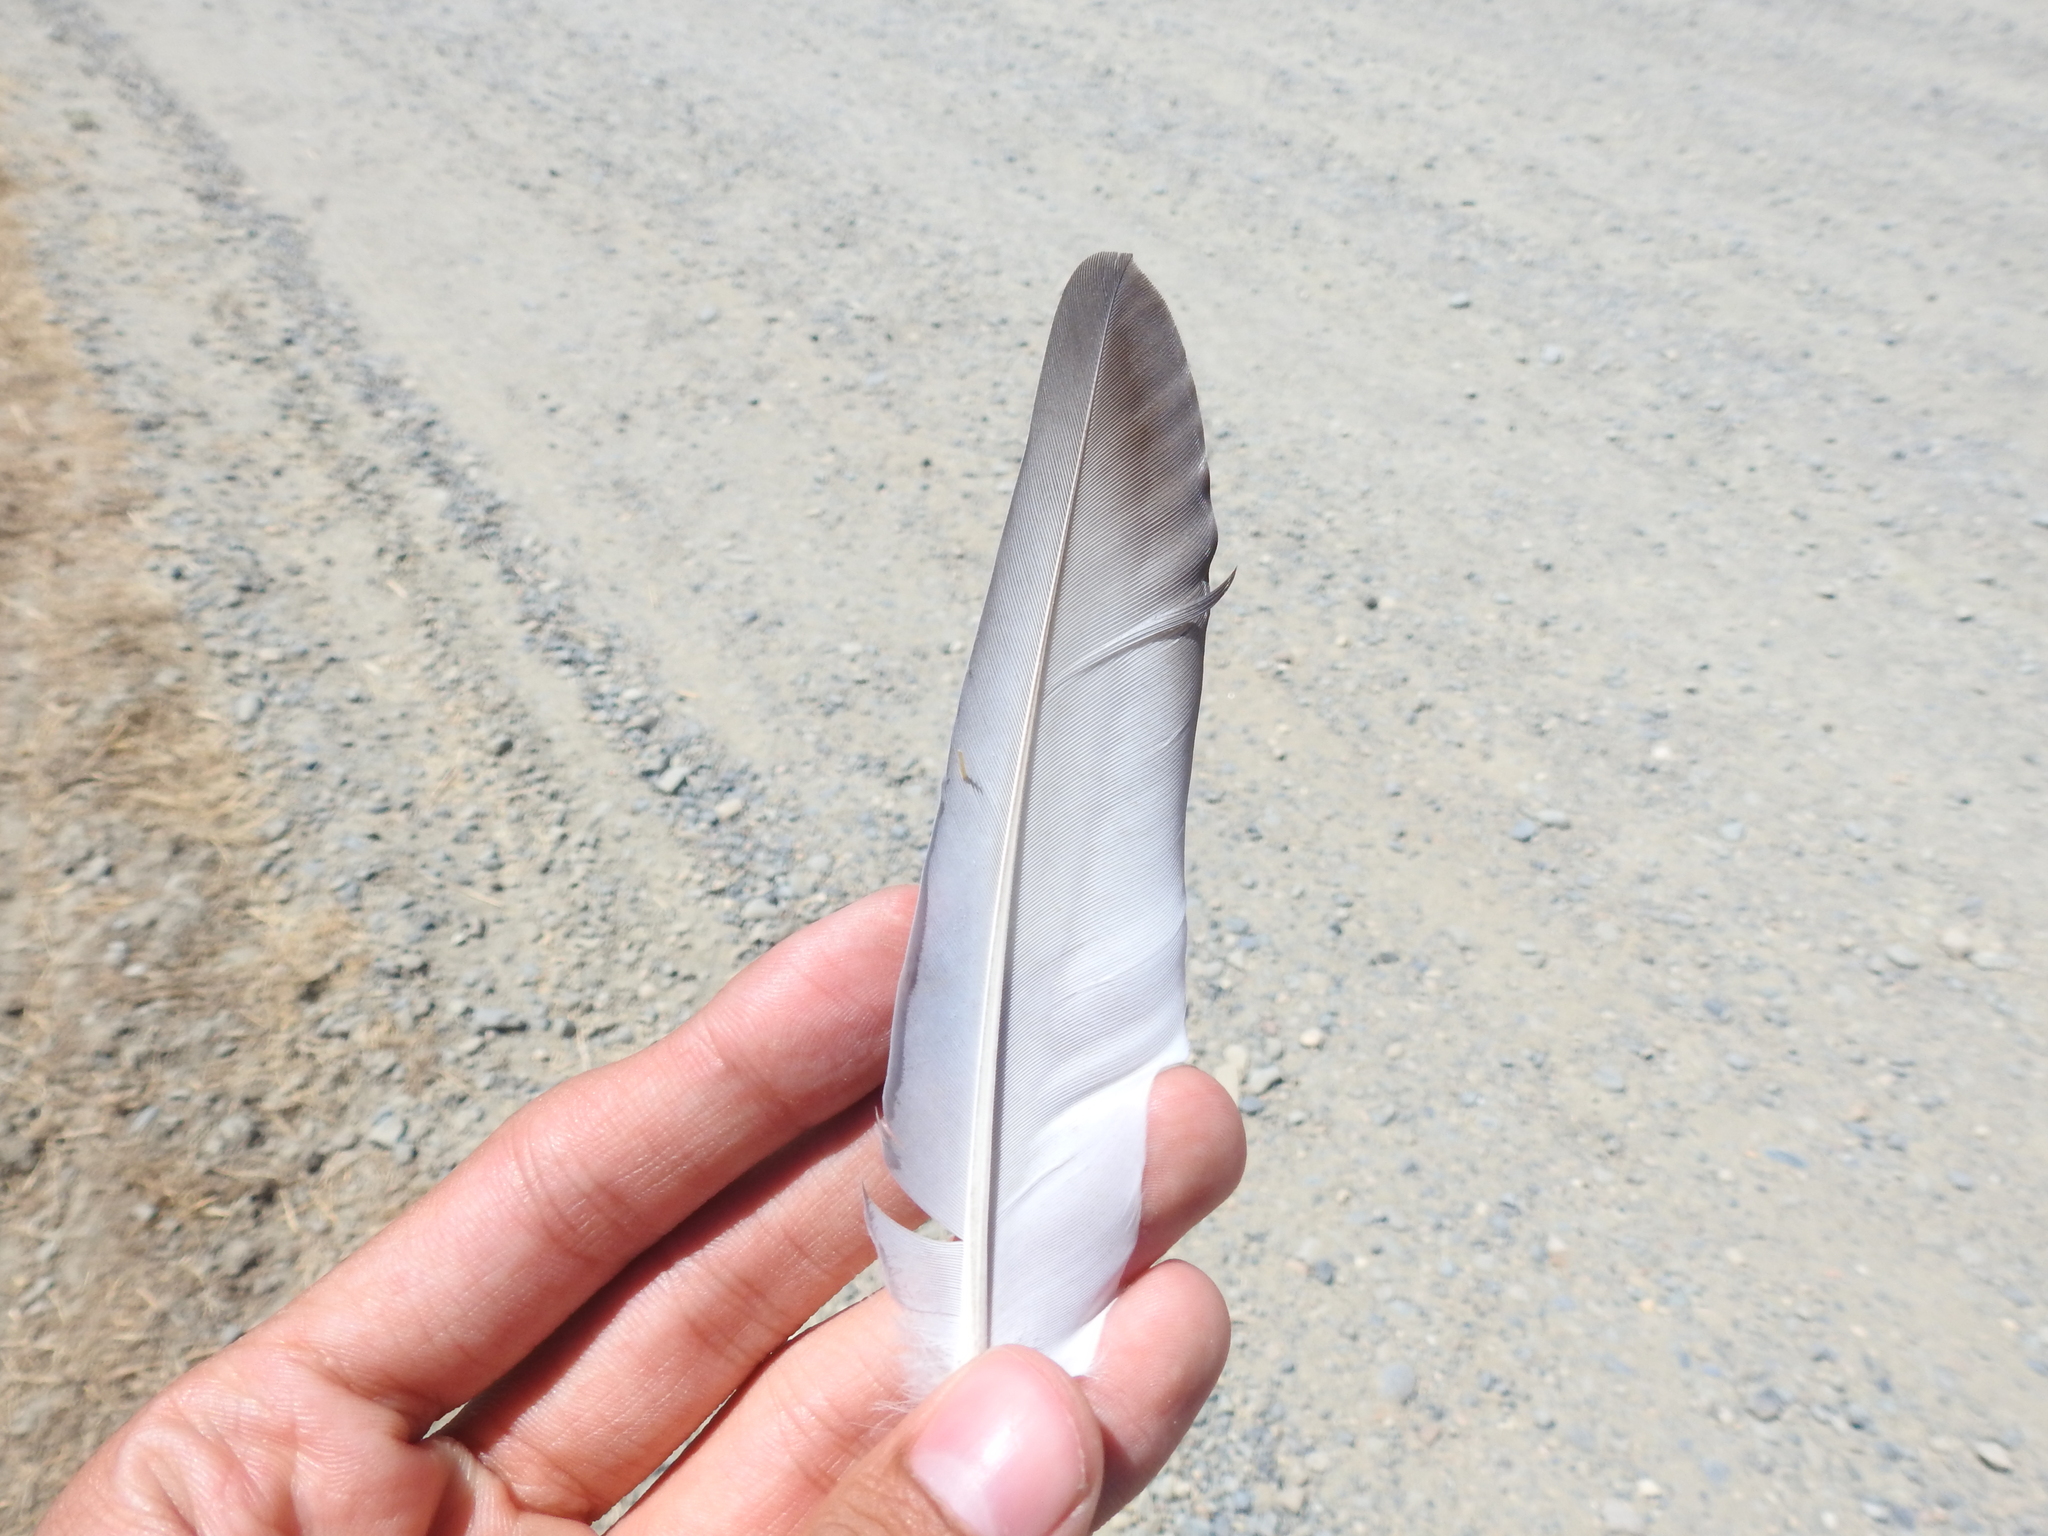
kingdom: Animalia
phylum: Chordata
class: Aves
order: Columbiformes
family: Columbidae
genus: Columba
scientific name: Columba livia
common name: Rock pigeon
